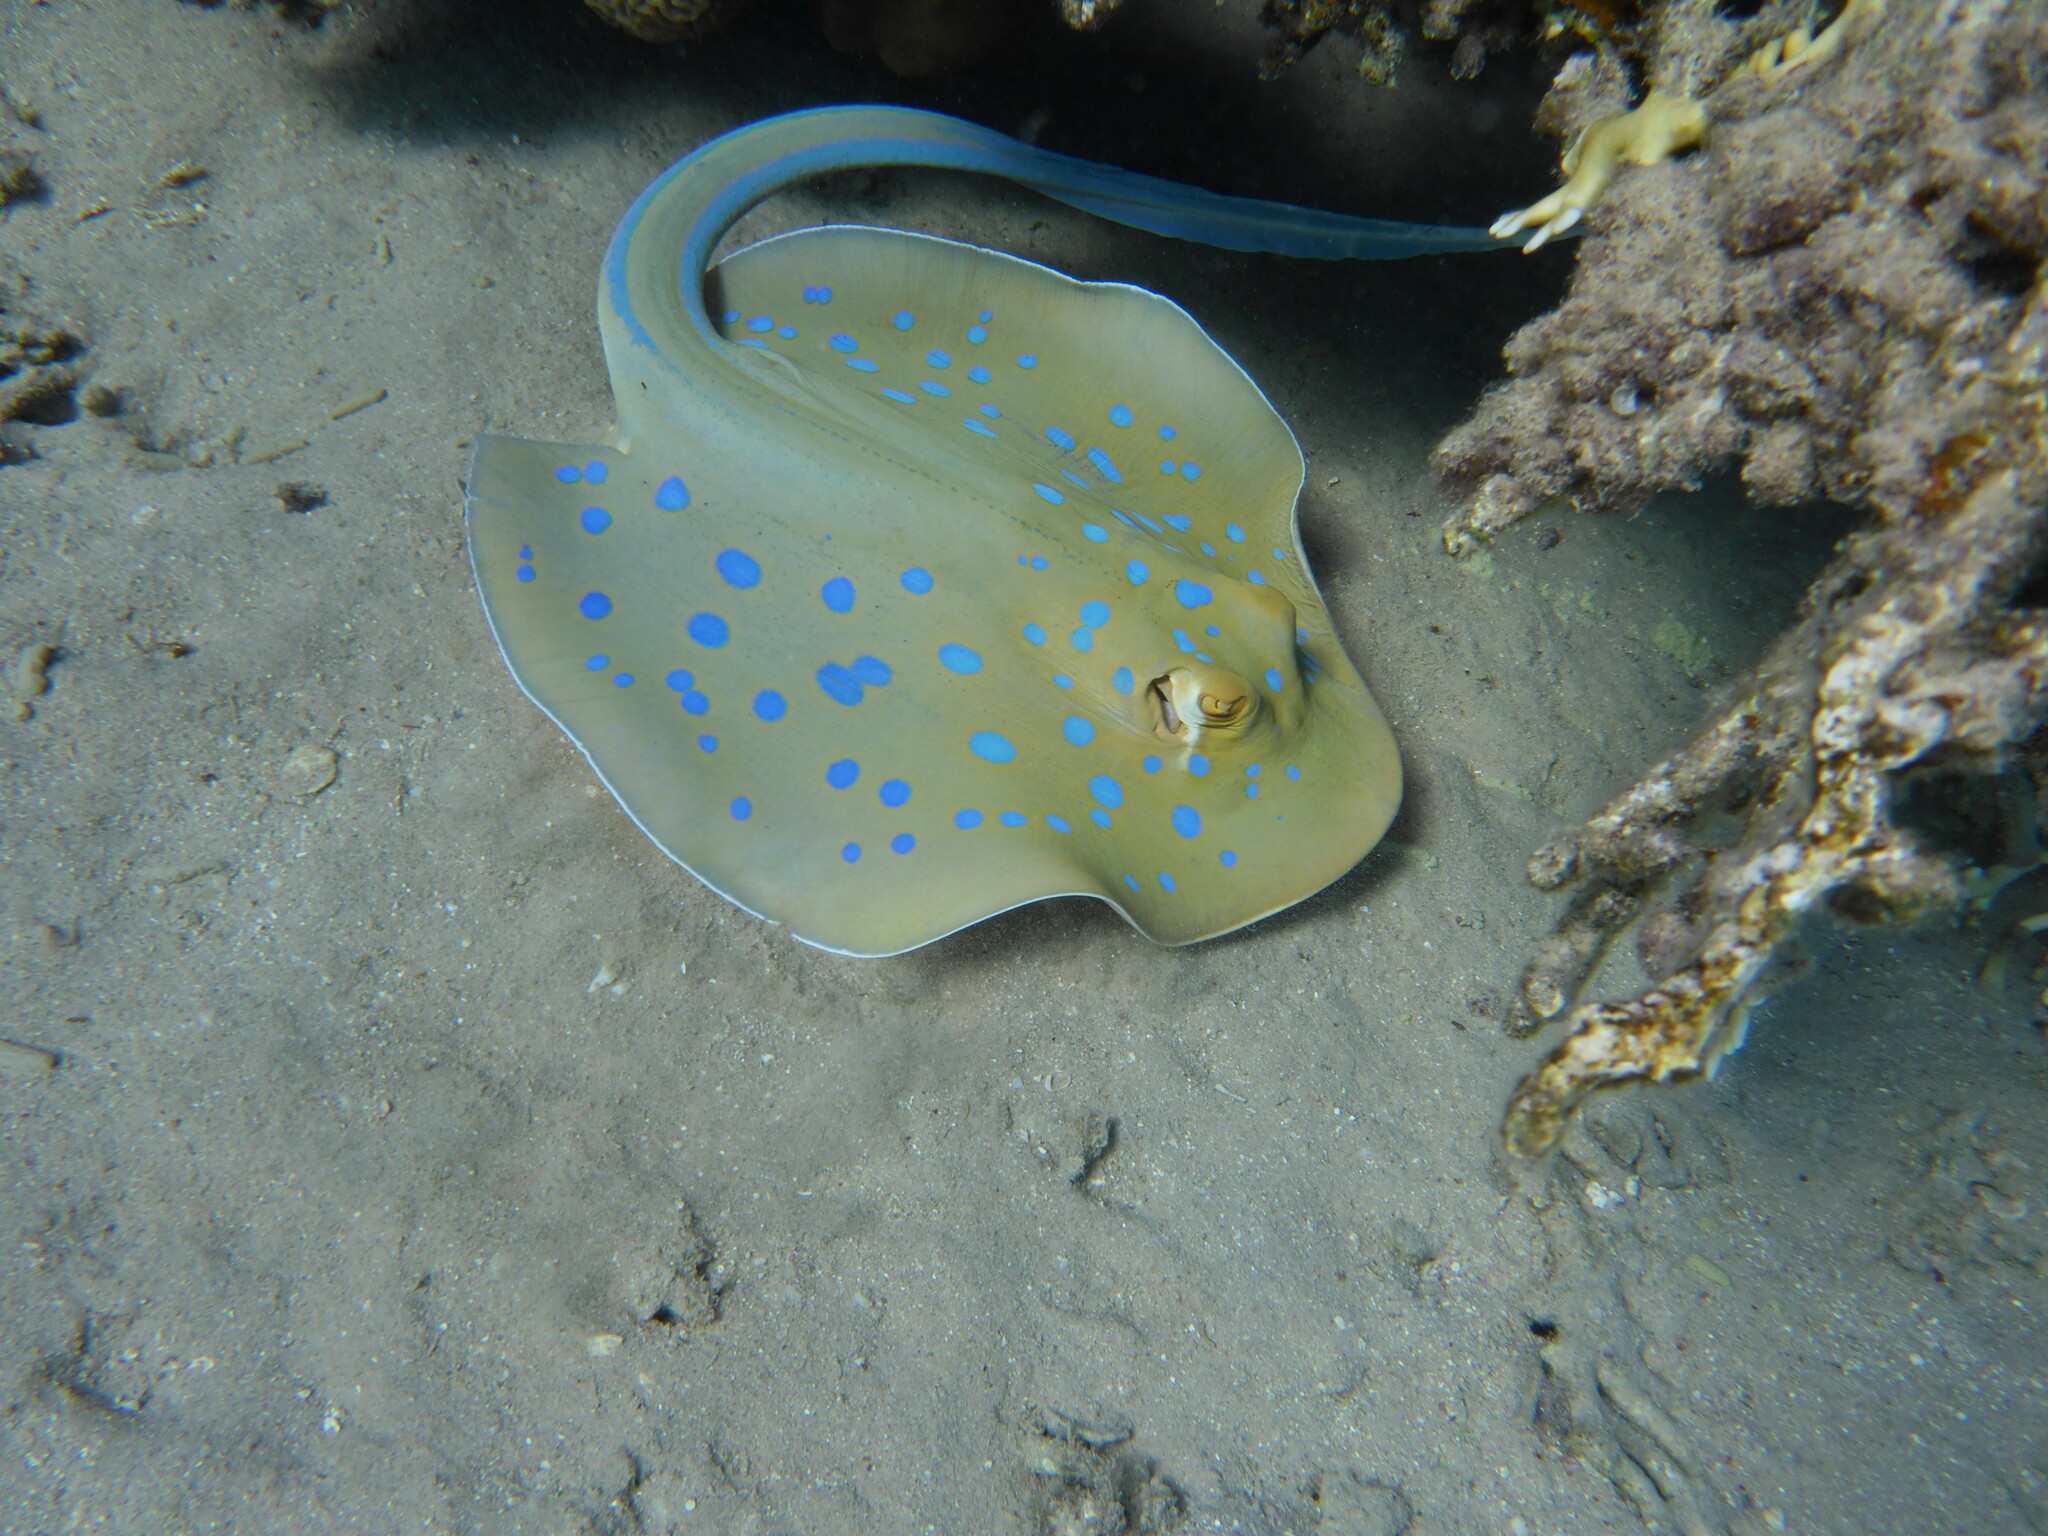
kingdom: Animalia
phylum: Chordata
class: Elasmobranchii
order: Myliobatiformes
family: Dasyatidae
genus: Taeniura
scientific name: Taeniura lymma
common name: Bluespotted ribbontail ray
